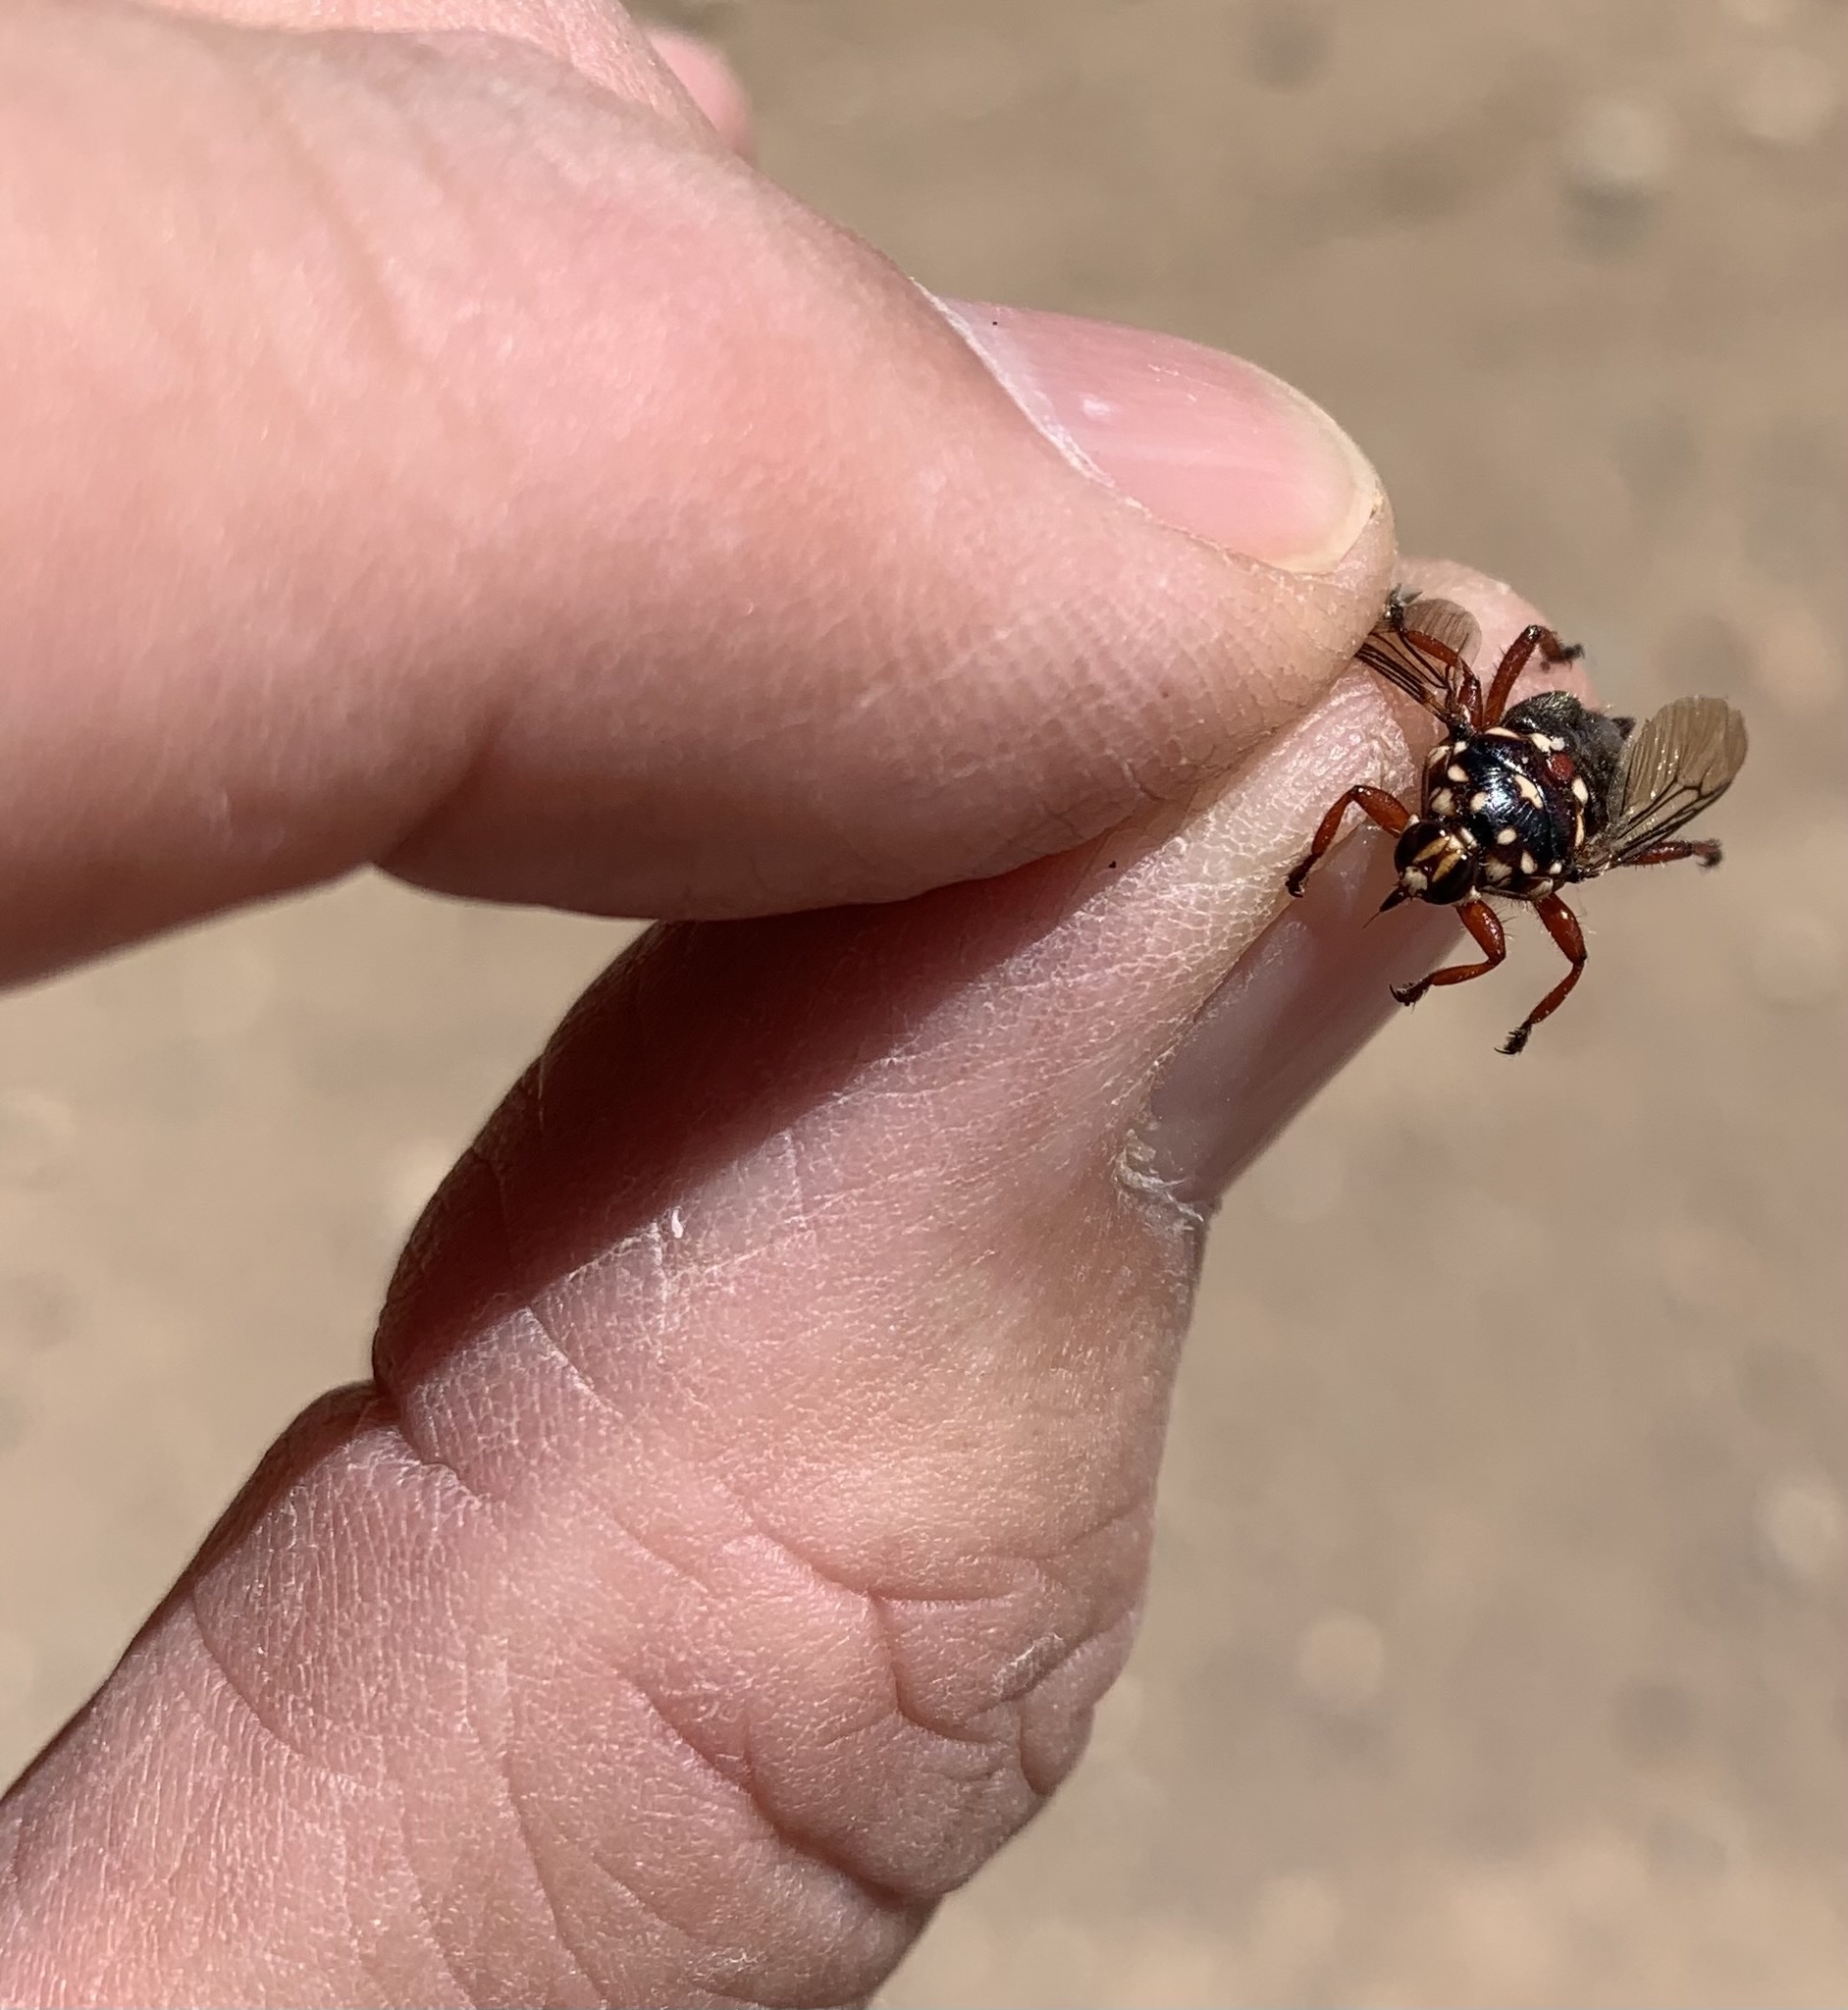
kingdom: Animalia
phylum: Arthropoda
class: Insecta
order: Diptera
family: Hippoboscidae
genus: Hippobosca
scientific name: Hippobosca rufipes
